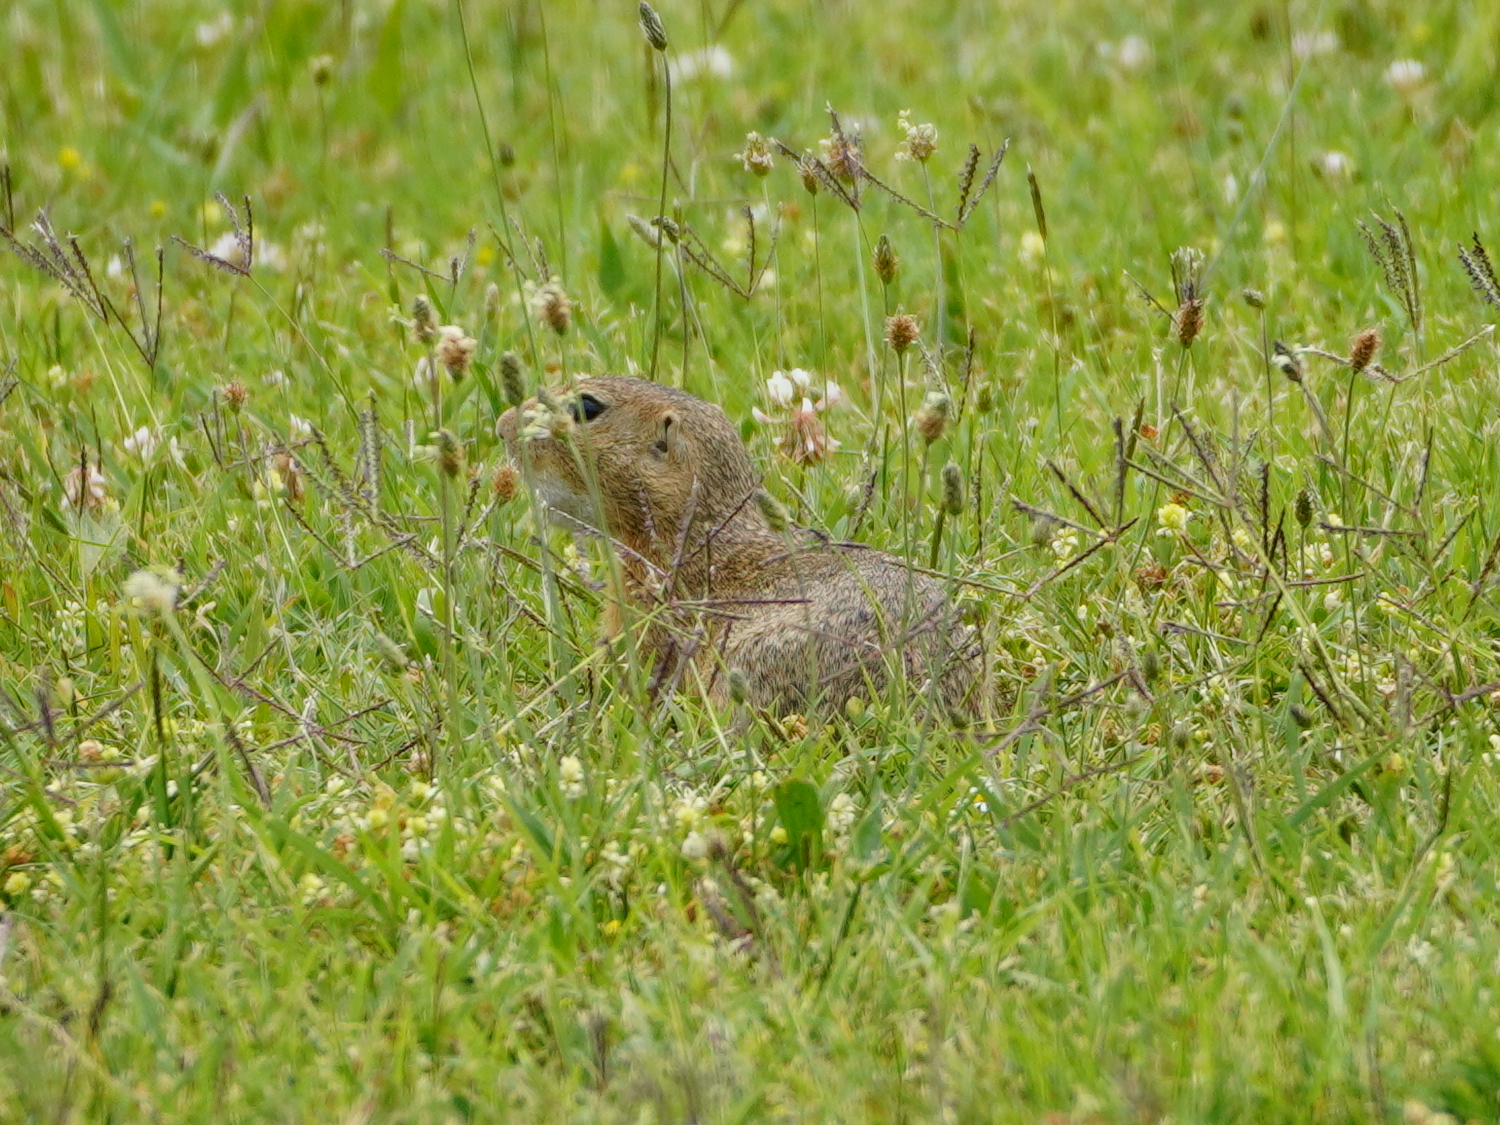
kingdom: Animalia
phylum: Chordata
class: Mammalia
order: Rodentia
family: Sciuridae
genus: Spermophilus
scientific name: Spermophilus citellus
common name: European ground squirrel
